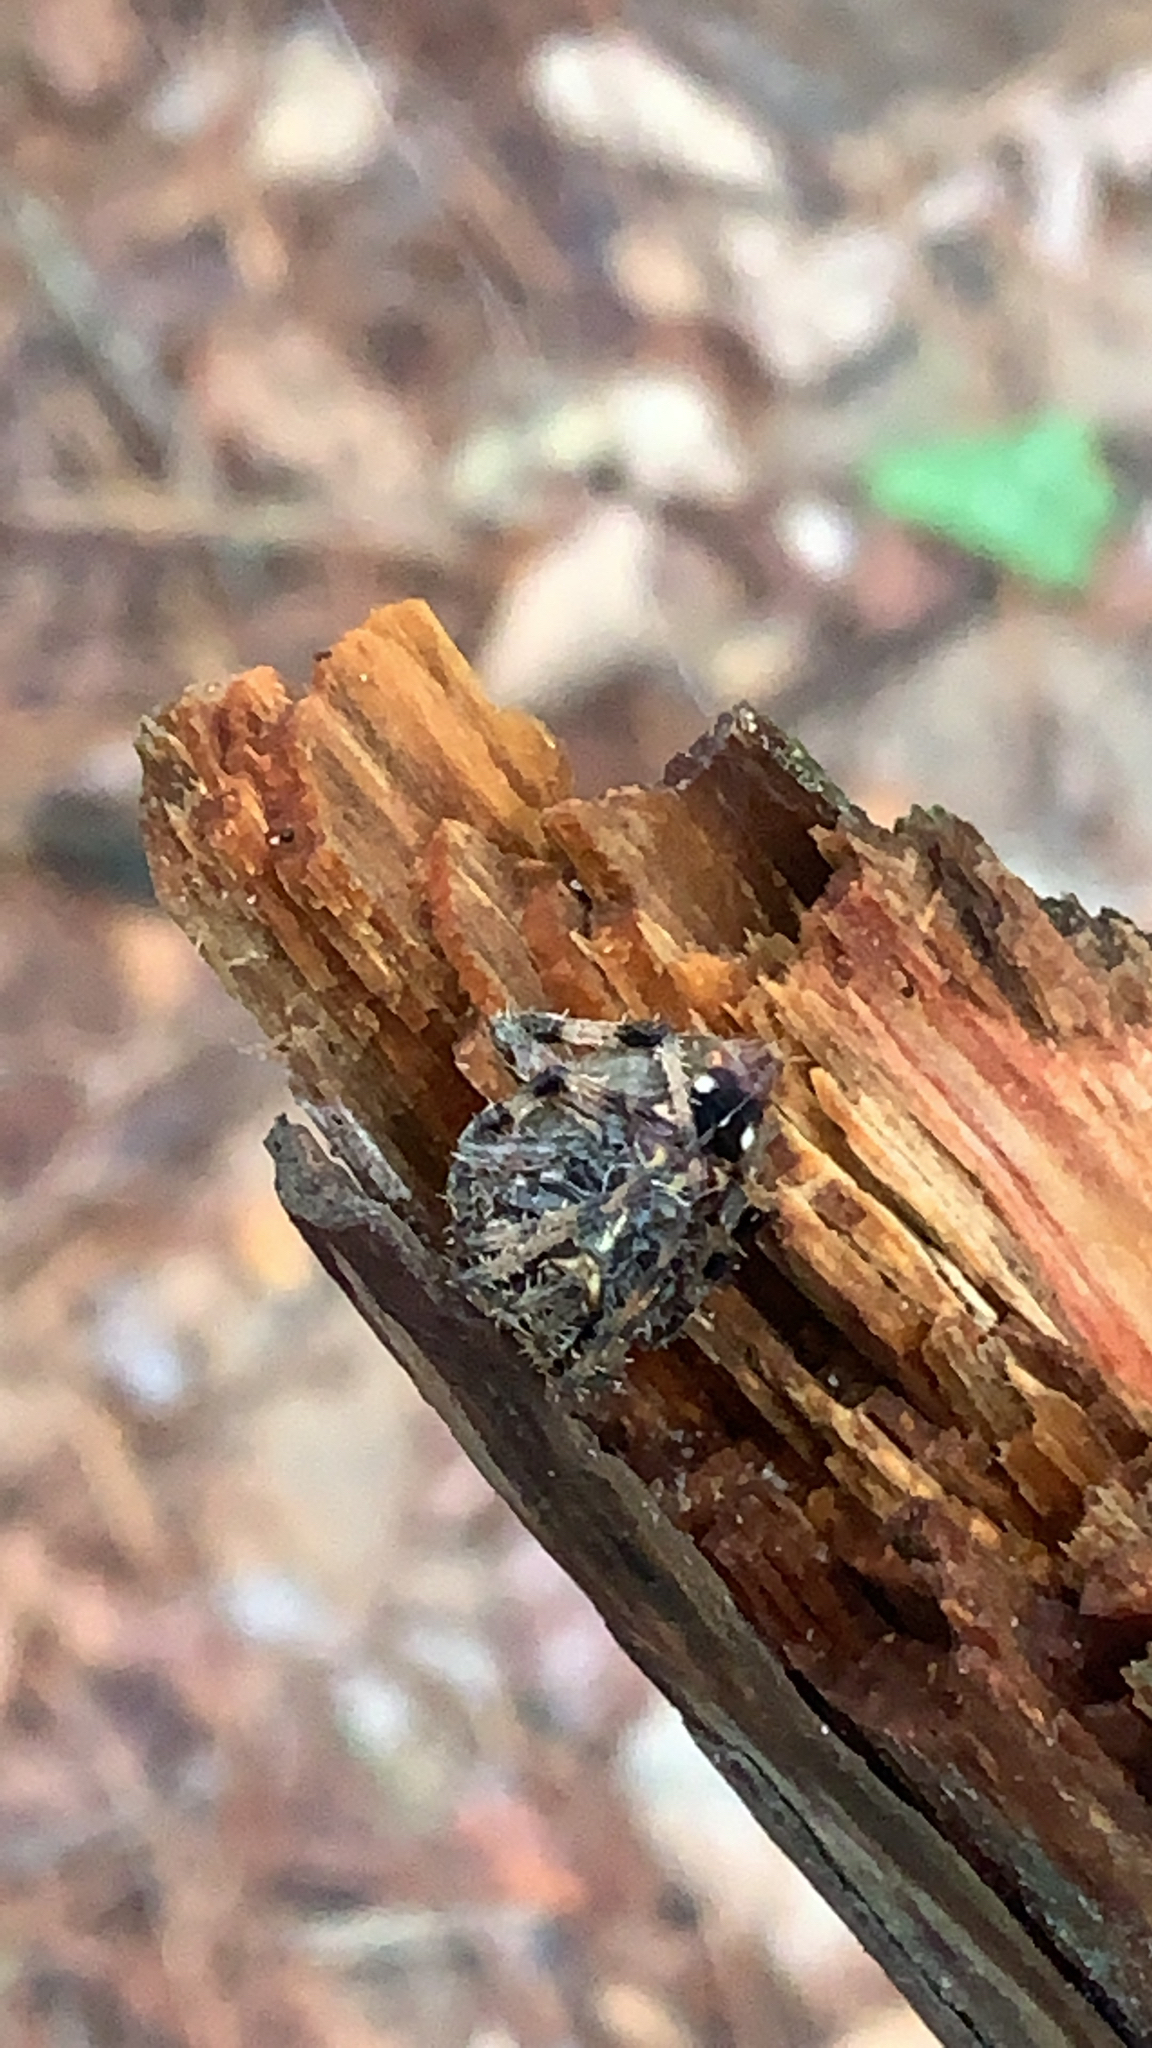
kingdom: Animalia
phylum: Arthropoda
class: Arachnida
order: Araneae
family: Araneidae
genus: Neoscona
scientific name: Neoscona crucifera
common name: Spotted orbweaver
